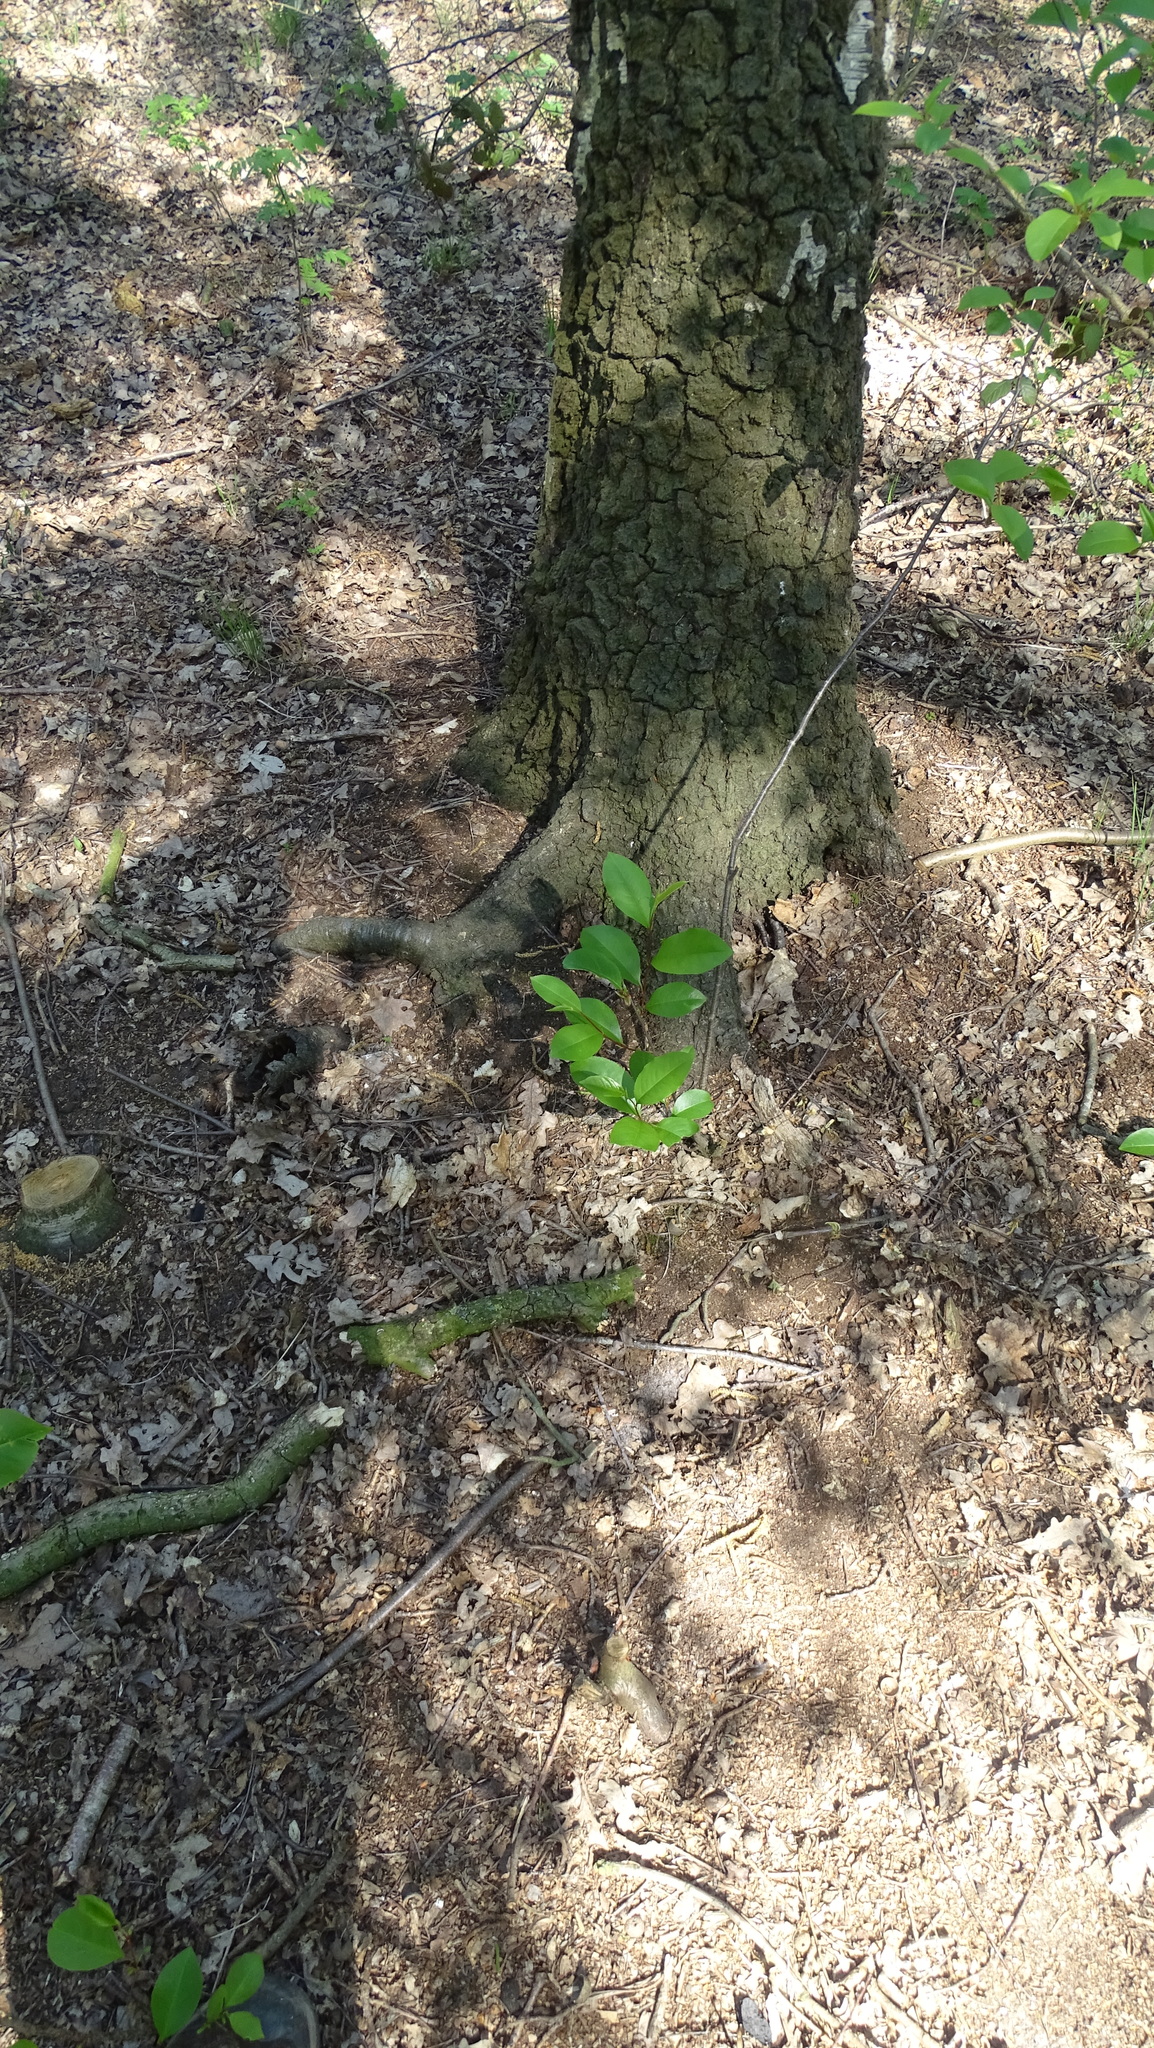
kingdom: Plantae
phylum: Tracheophyta
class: Magnoliopsida
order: Rosales
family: Rosaceae
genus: Prunus
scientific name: Prunus serotina
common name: Black cherry
